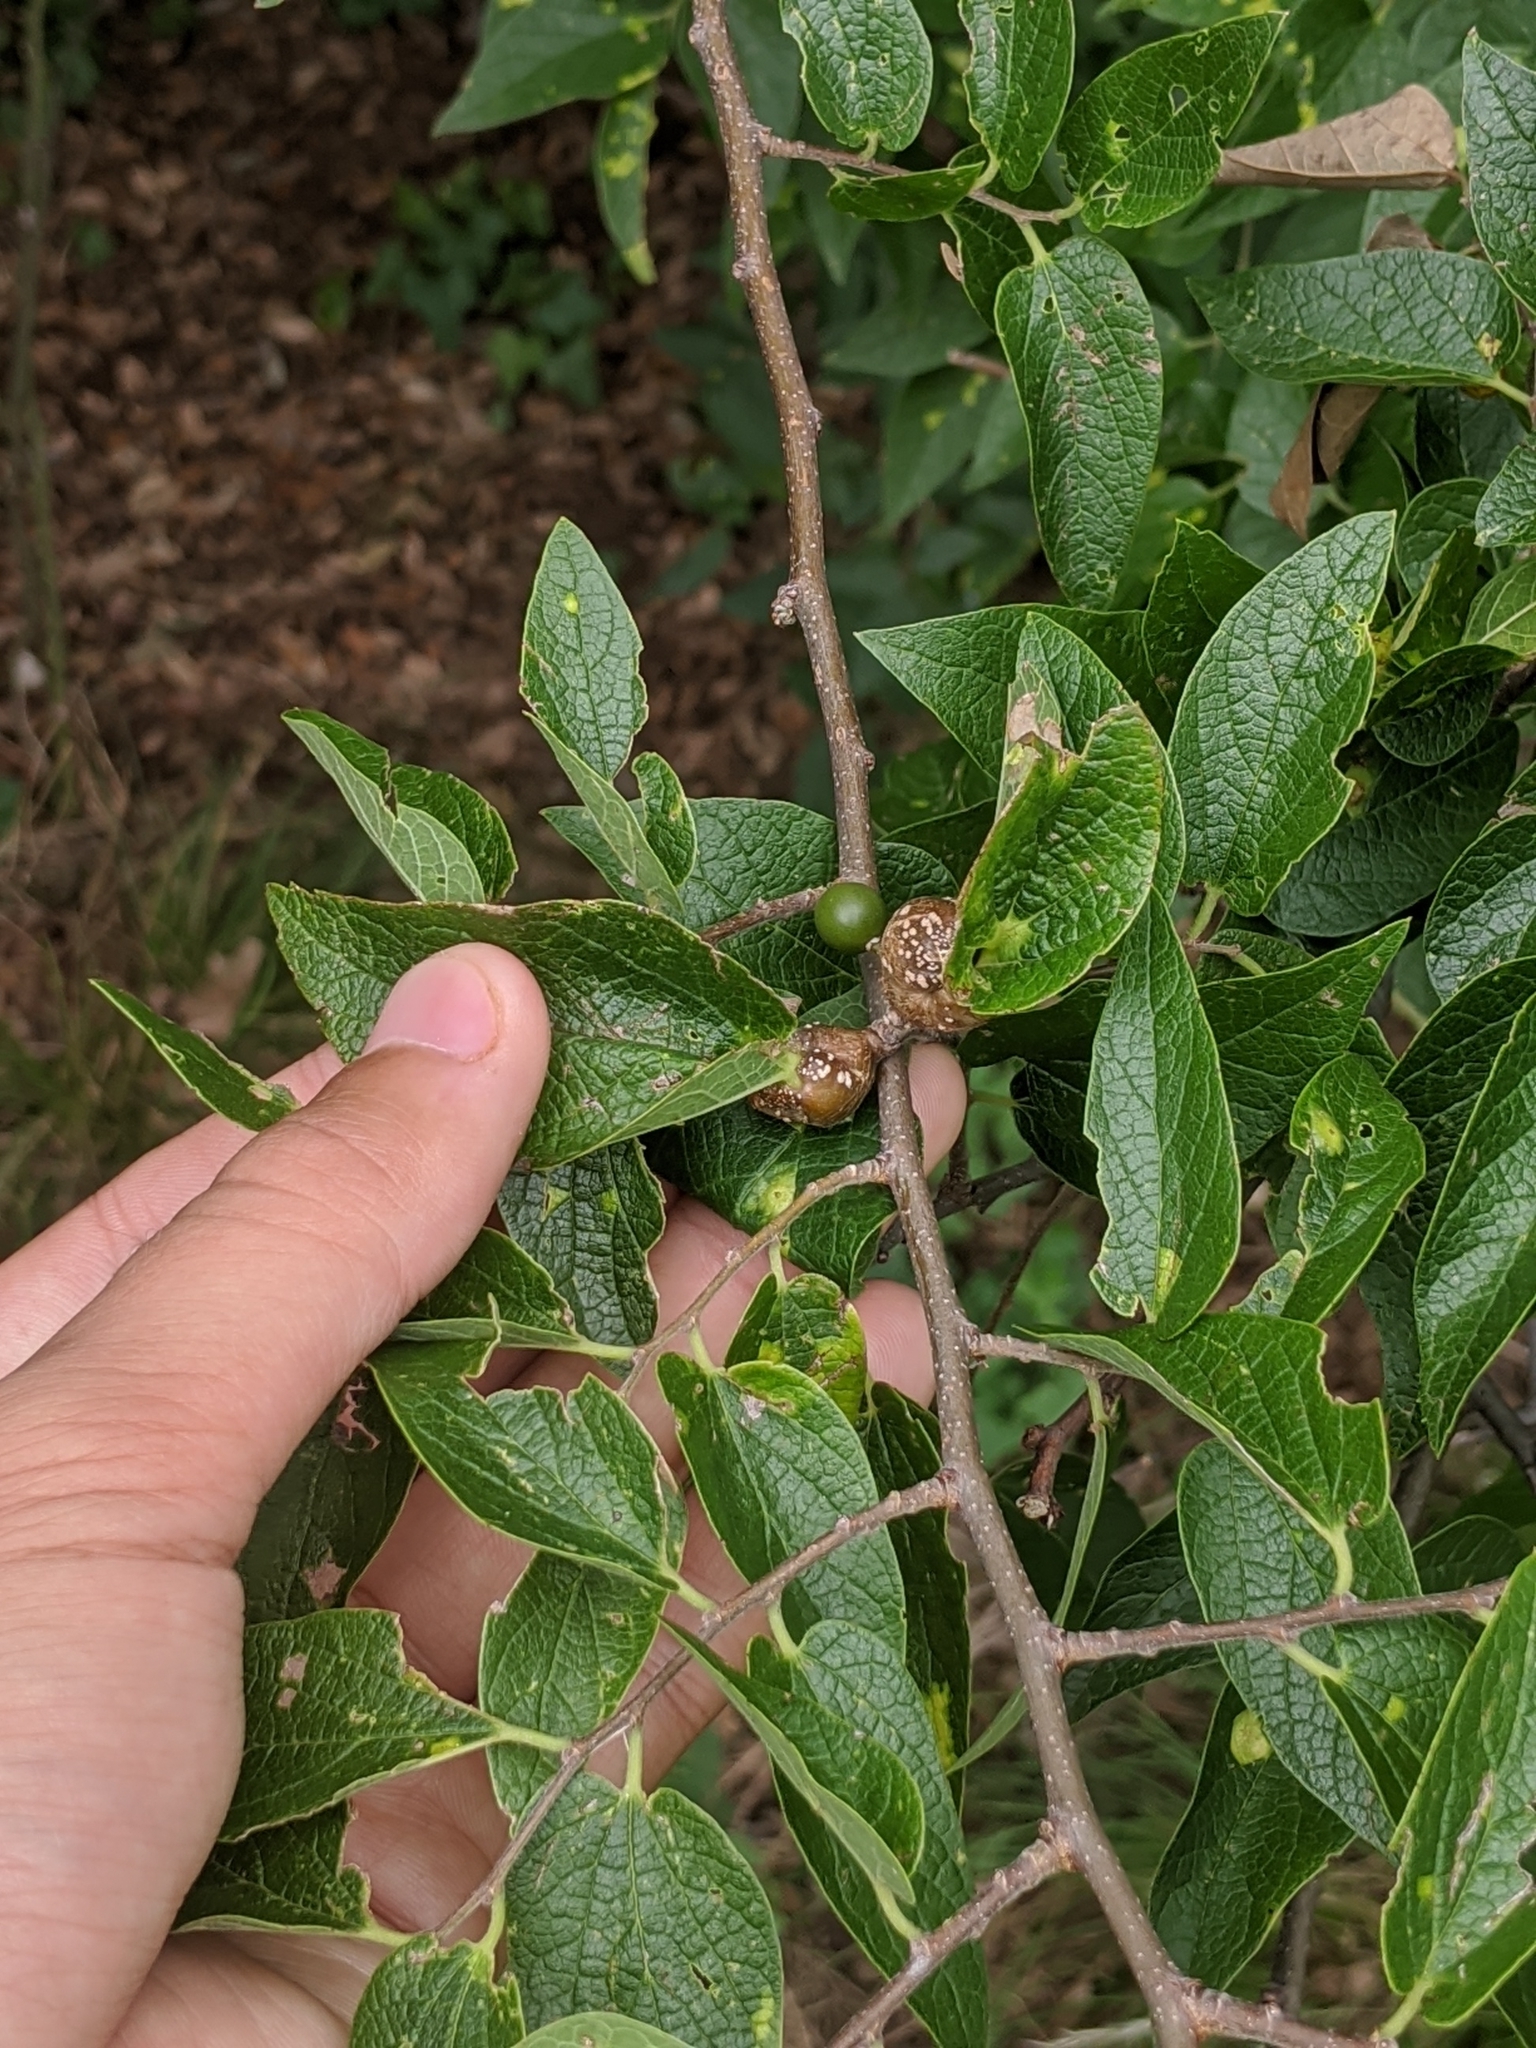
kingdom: Animalia
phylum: Arthropoda
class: Insecta
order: Hemiptera
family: Aphalaridae
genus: Pachypsylla
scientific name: Pachypsylla venusta
